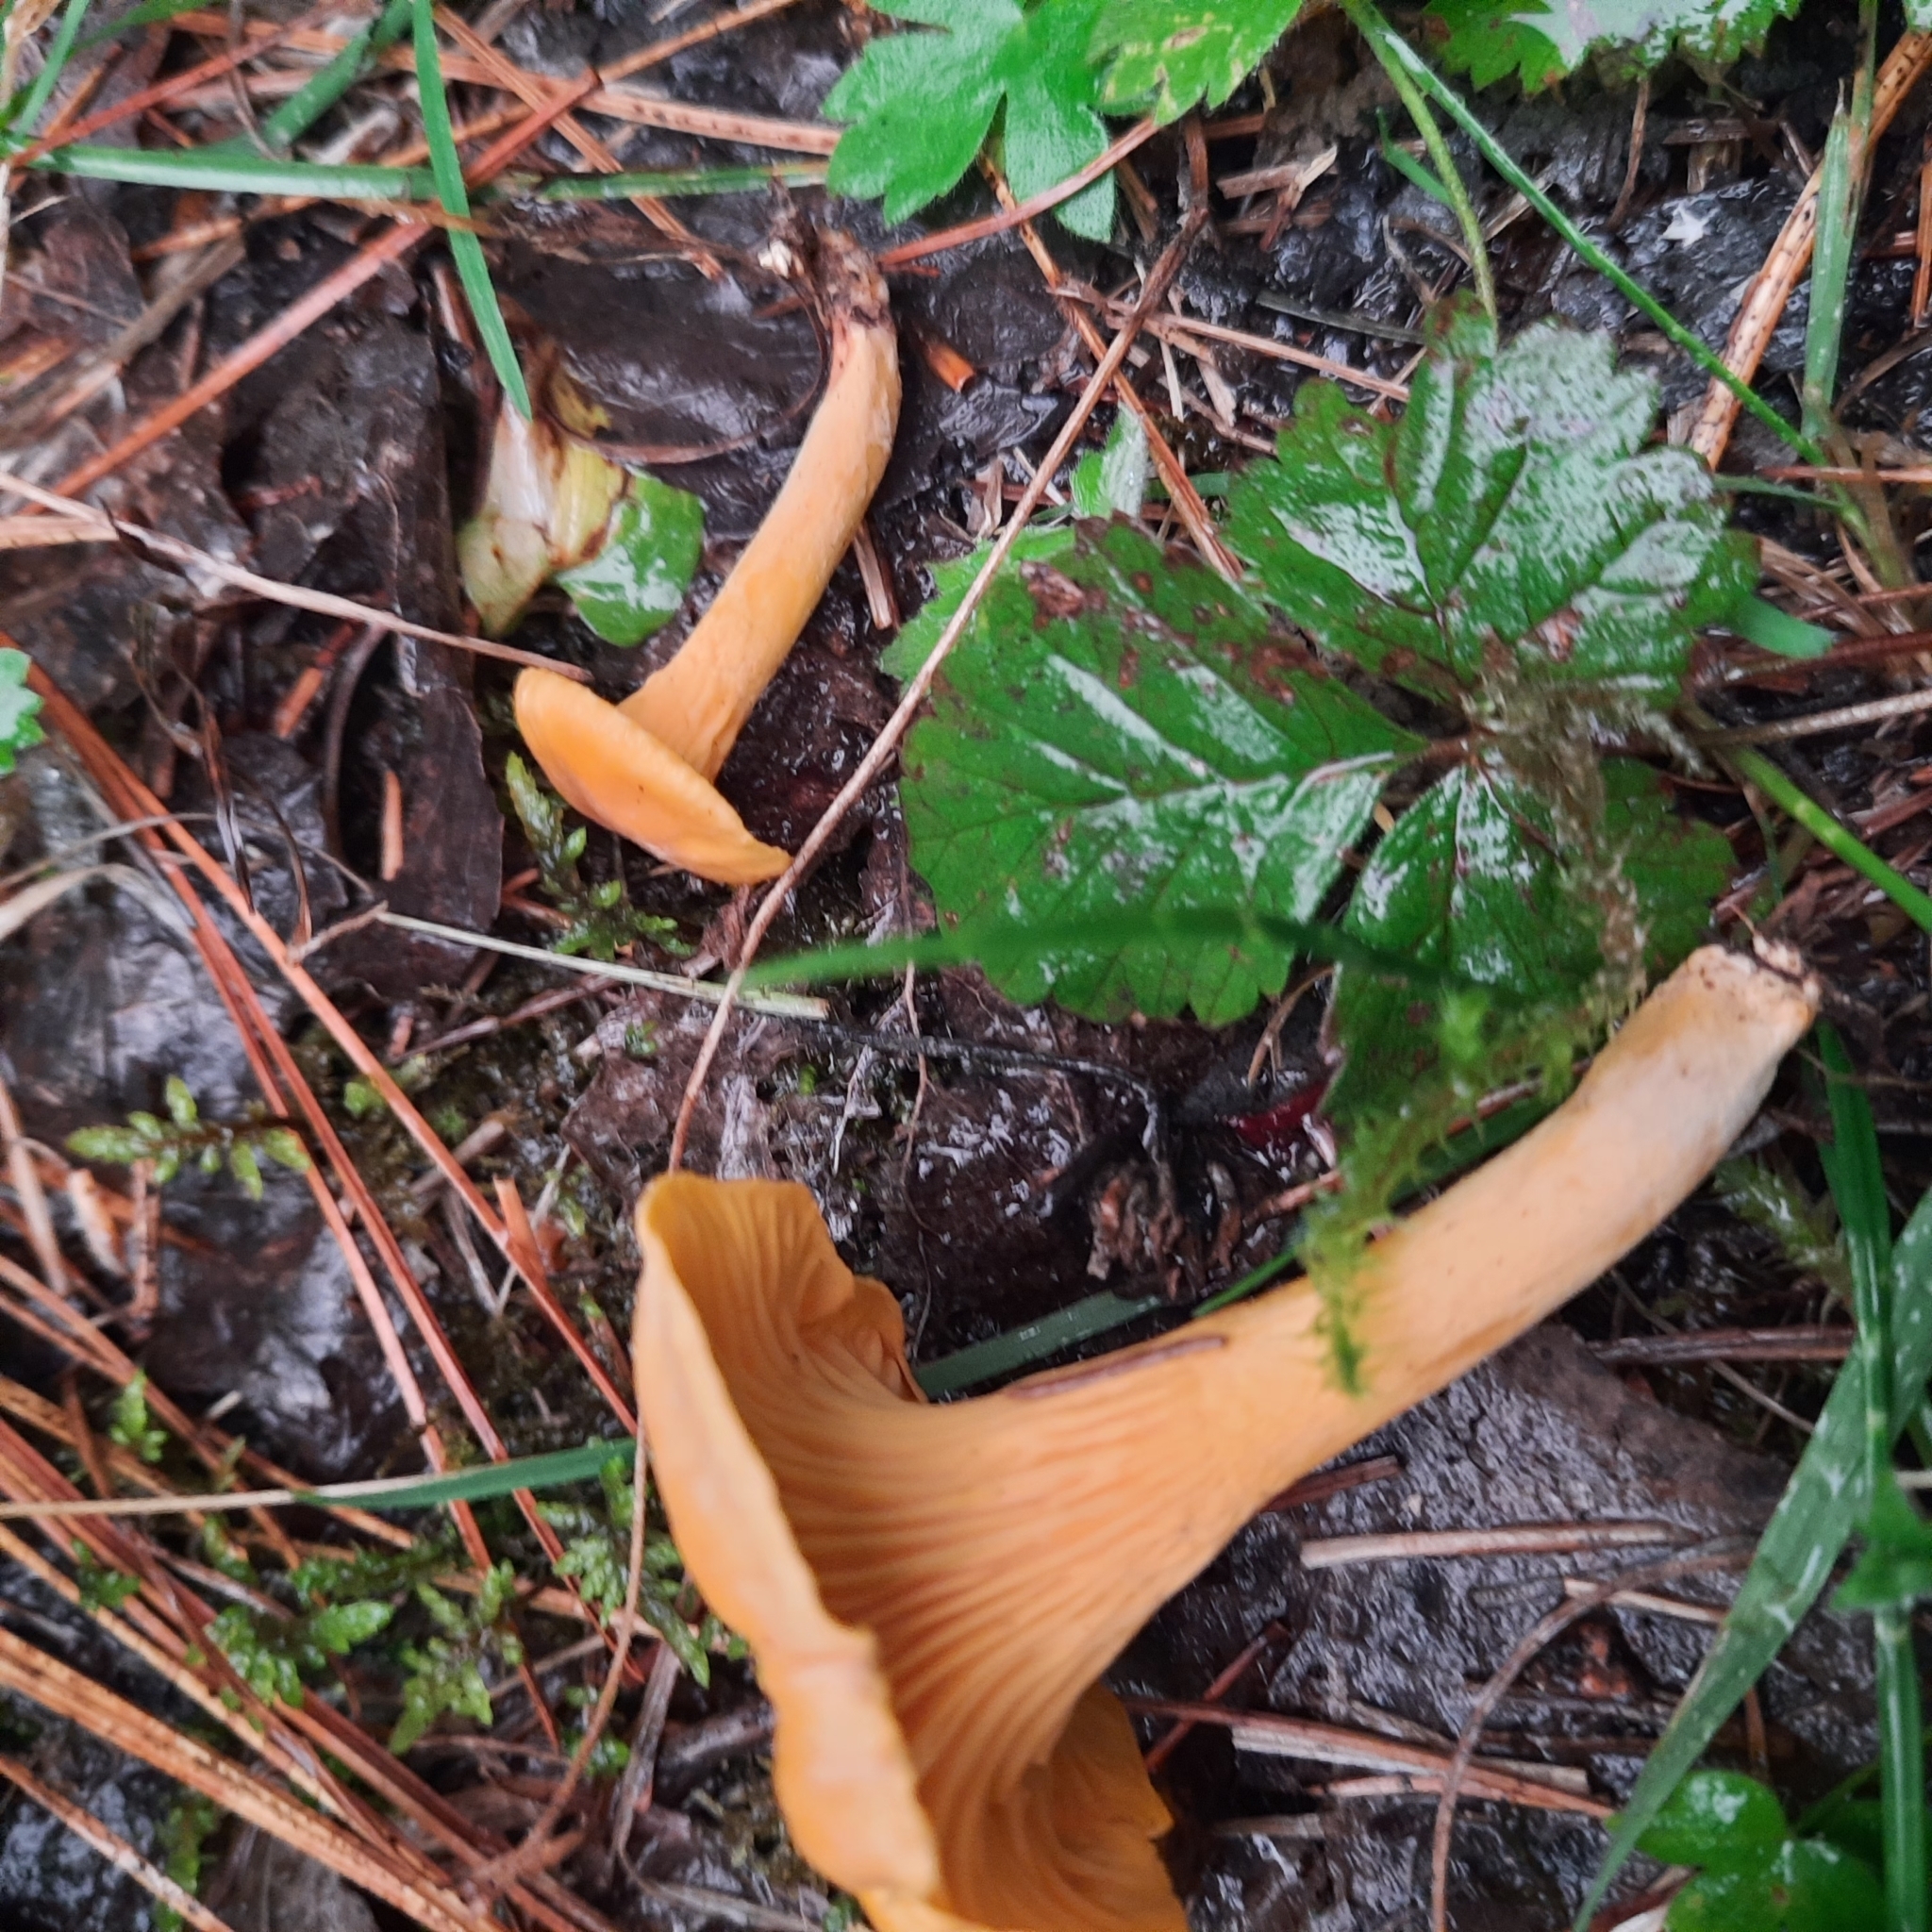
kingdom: Fungi
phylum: Basidiomycota
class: Agaricomycetes
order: Cantharellales
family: Hydnaceae
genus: Cantharellus
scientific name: Cantharellus cibarius
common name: Chanterelle
